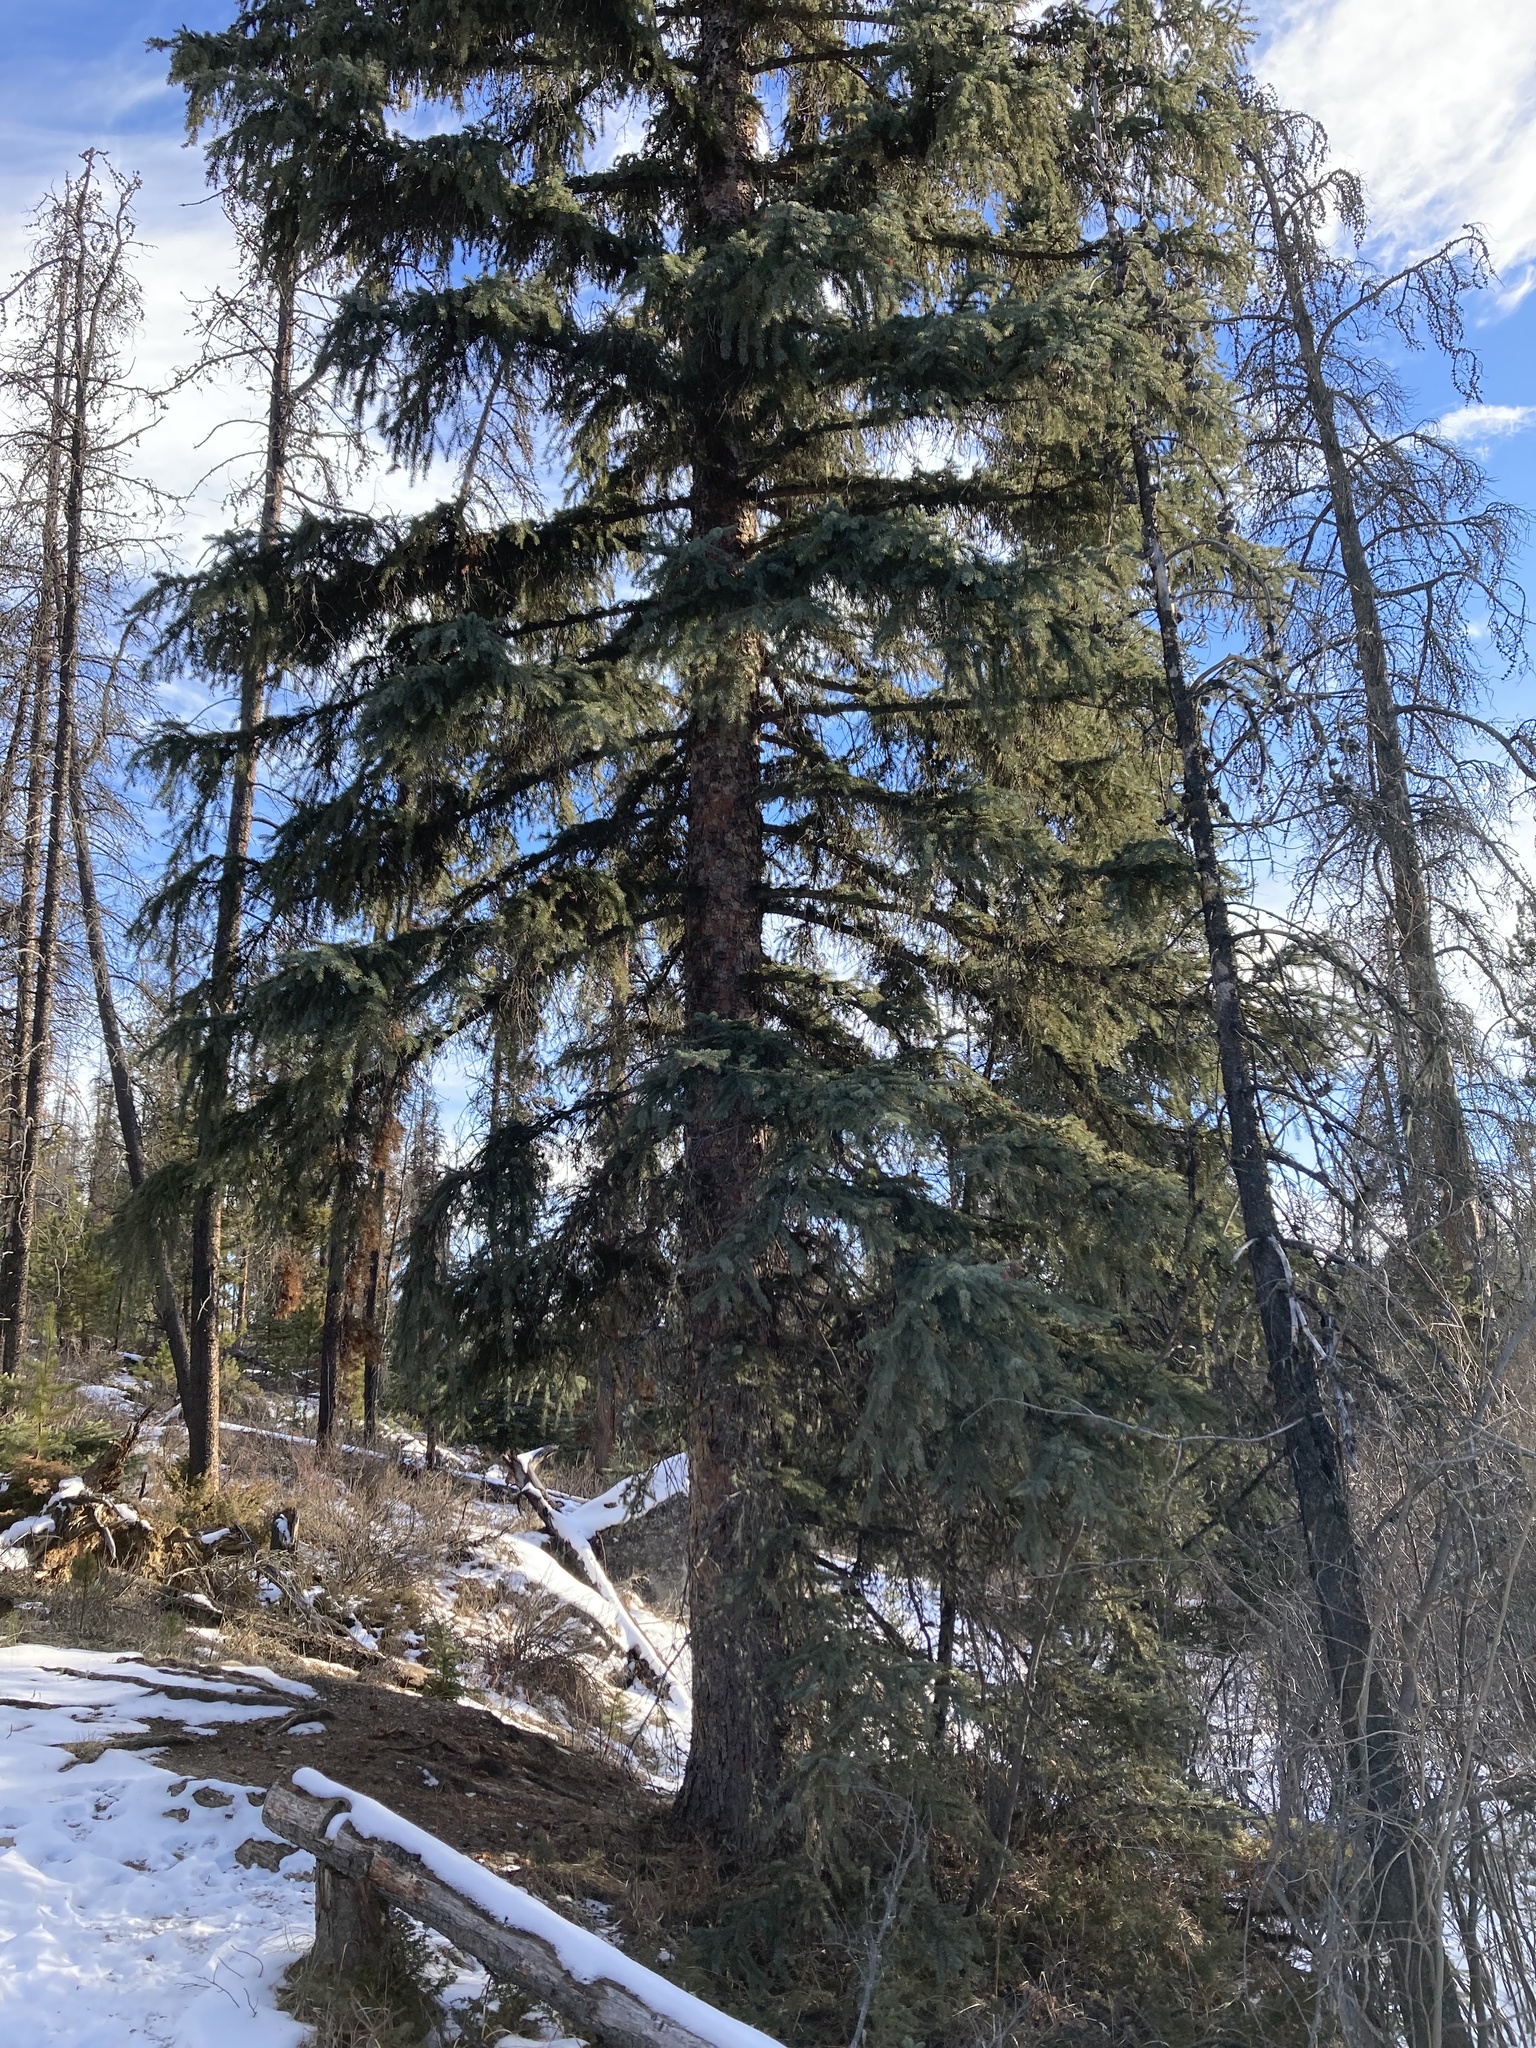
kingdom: Plantae
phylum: Tracheophyta
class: Pinopsida
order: Pinales
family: Pinaceae
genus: Picea
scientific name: Picea engelmannii
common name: Engelmann spruce
